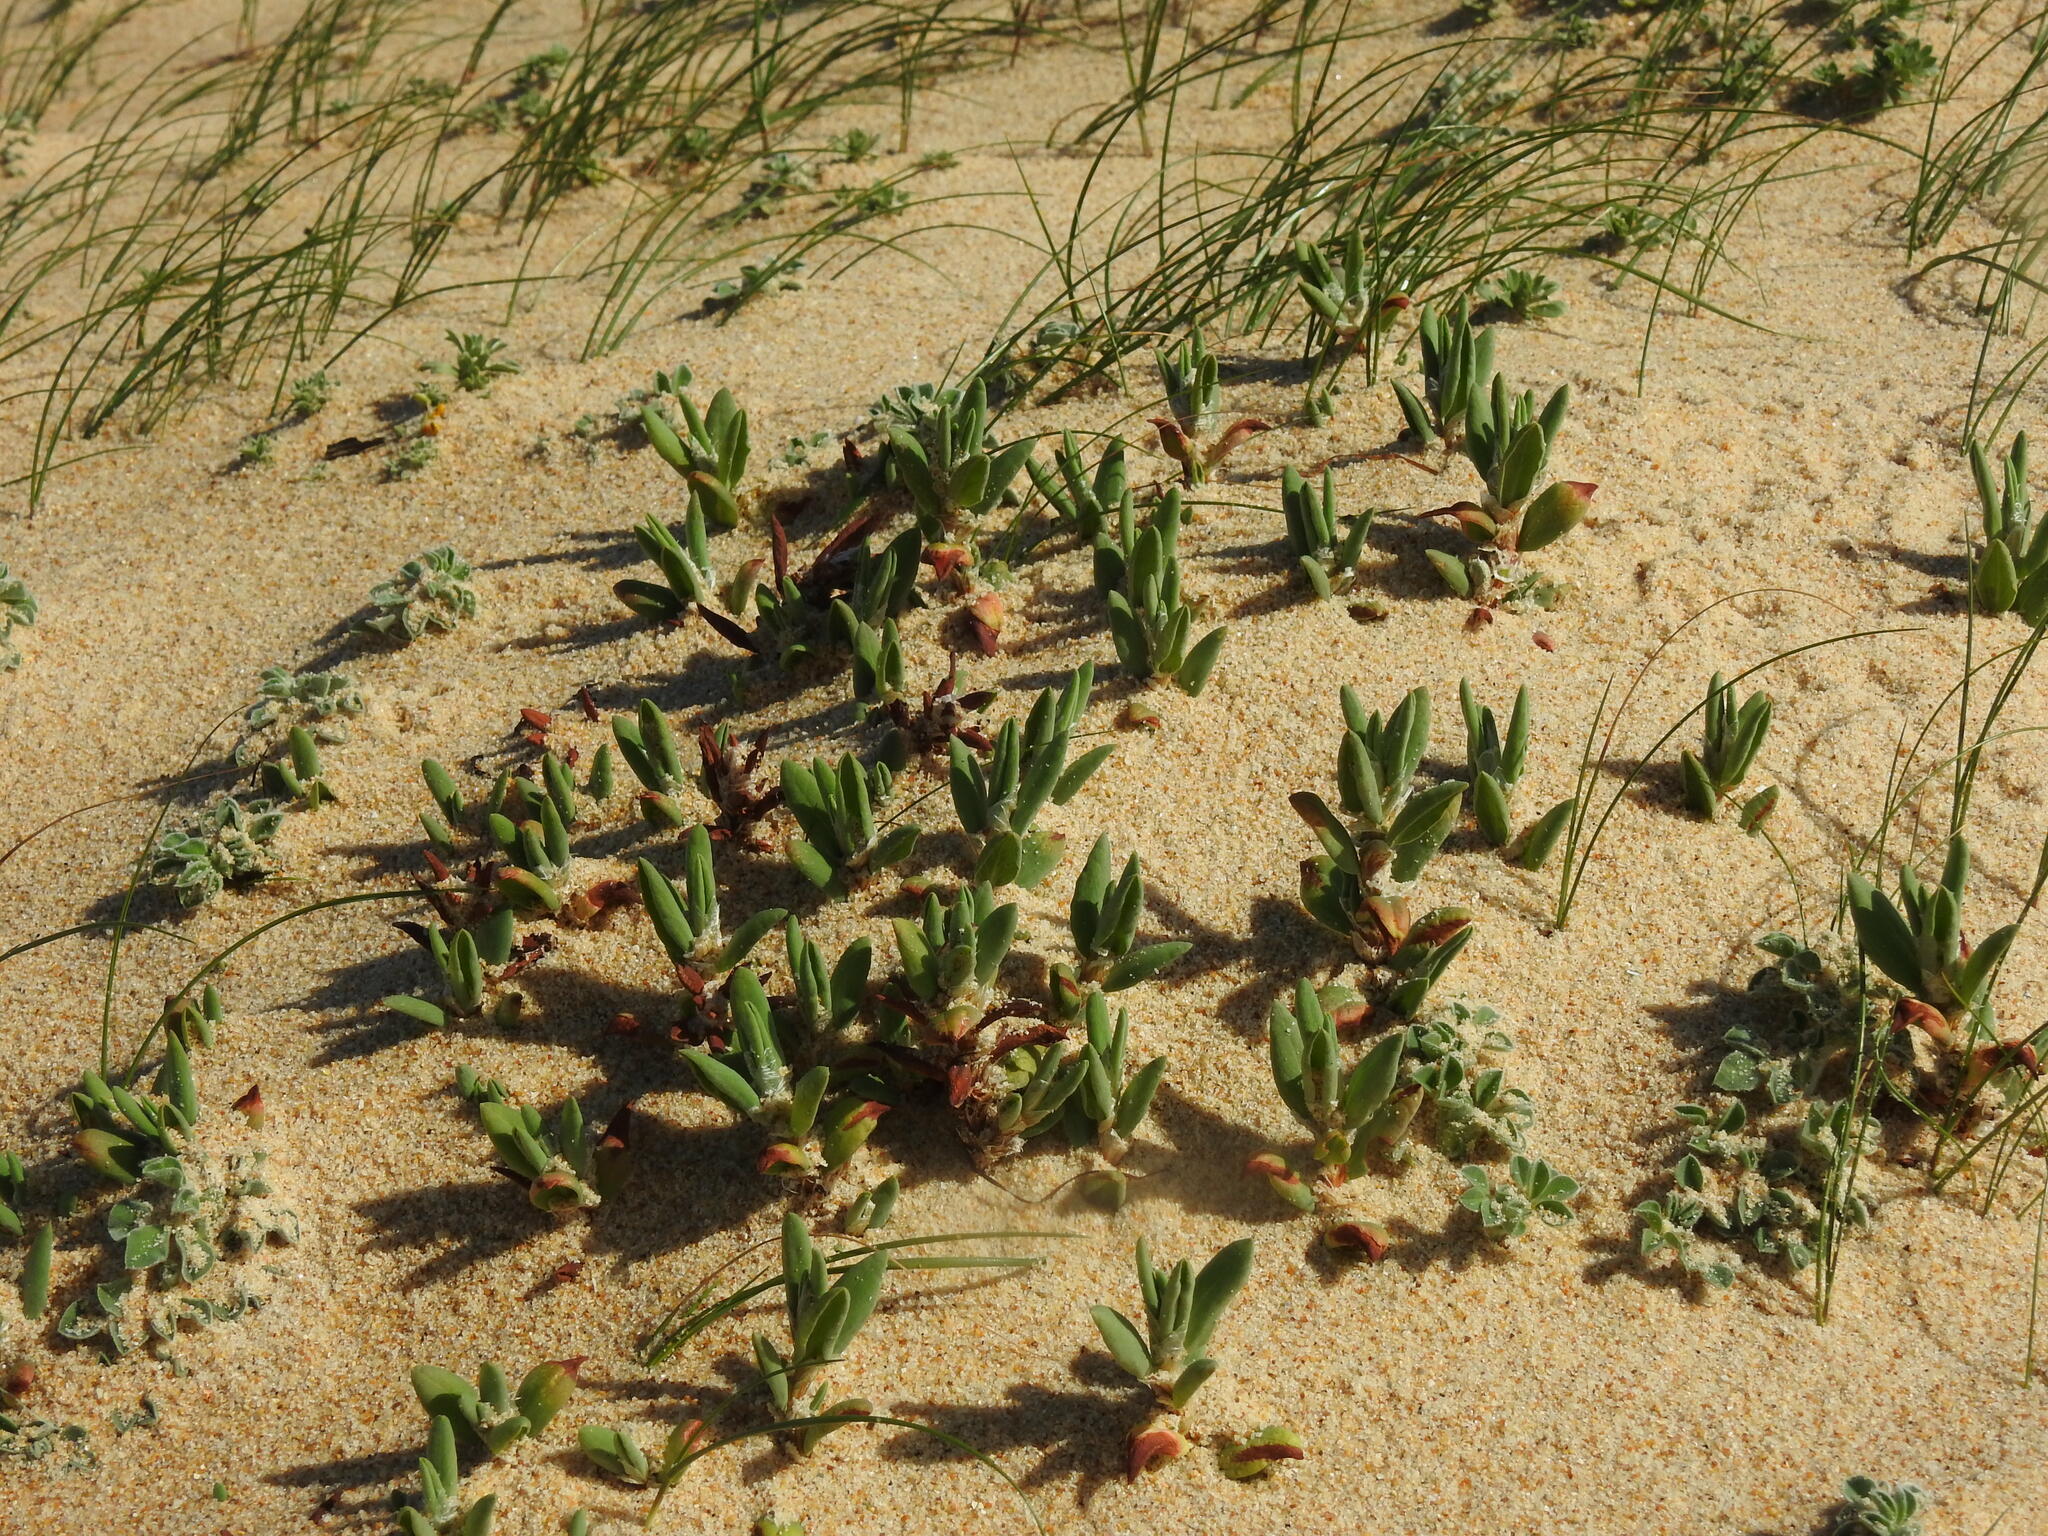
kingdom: Plantae
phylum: Tracheophyta
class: Magnoliopsida
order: Caryophyllales
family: Polygonaceae
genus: Polygonum
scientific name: Polygonum maritimum
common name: Sea knotgrass
